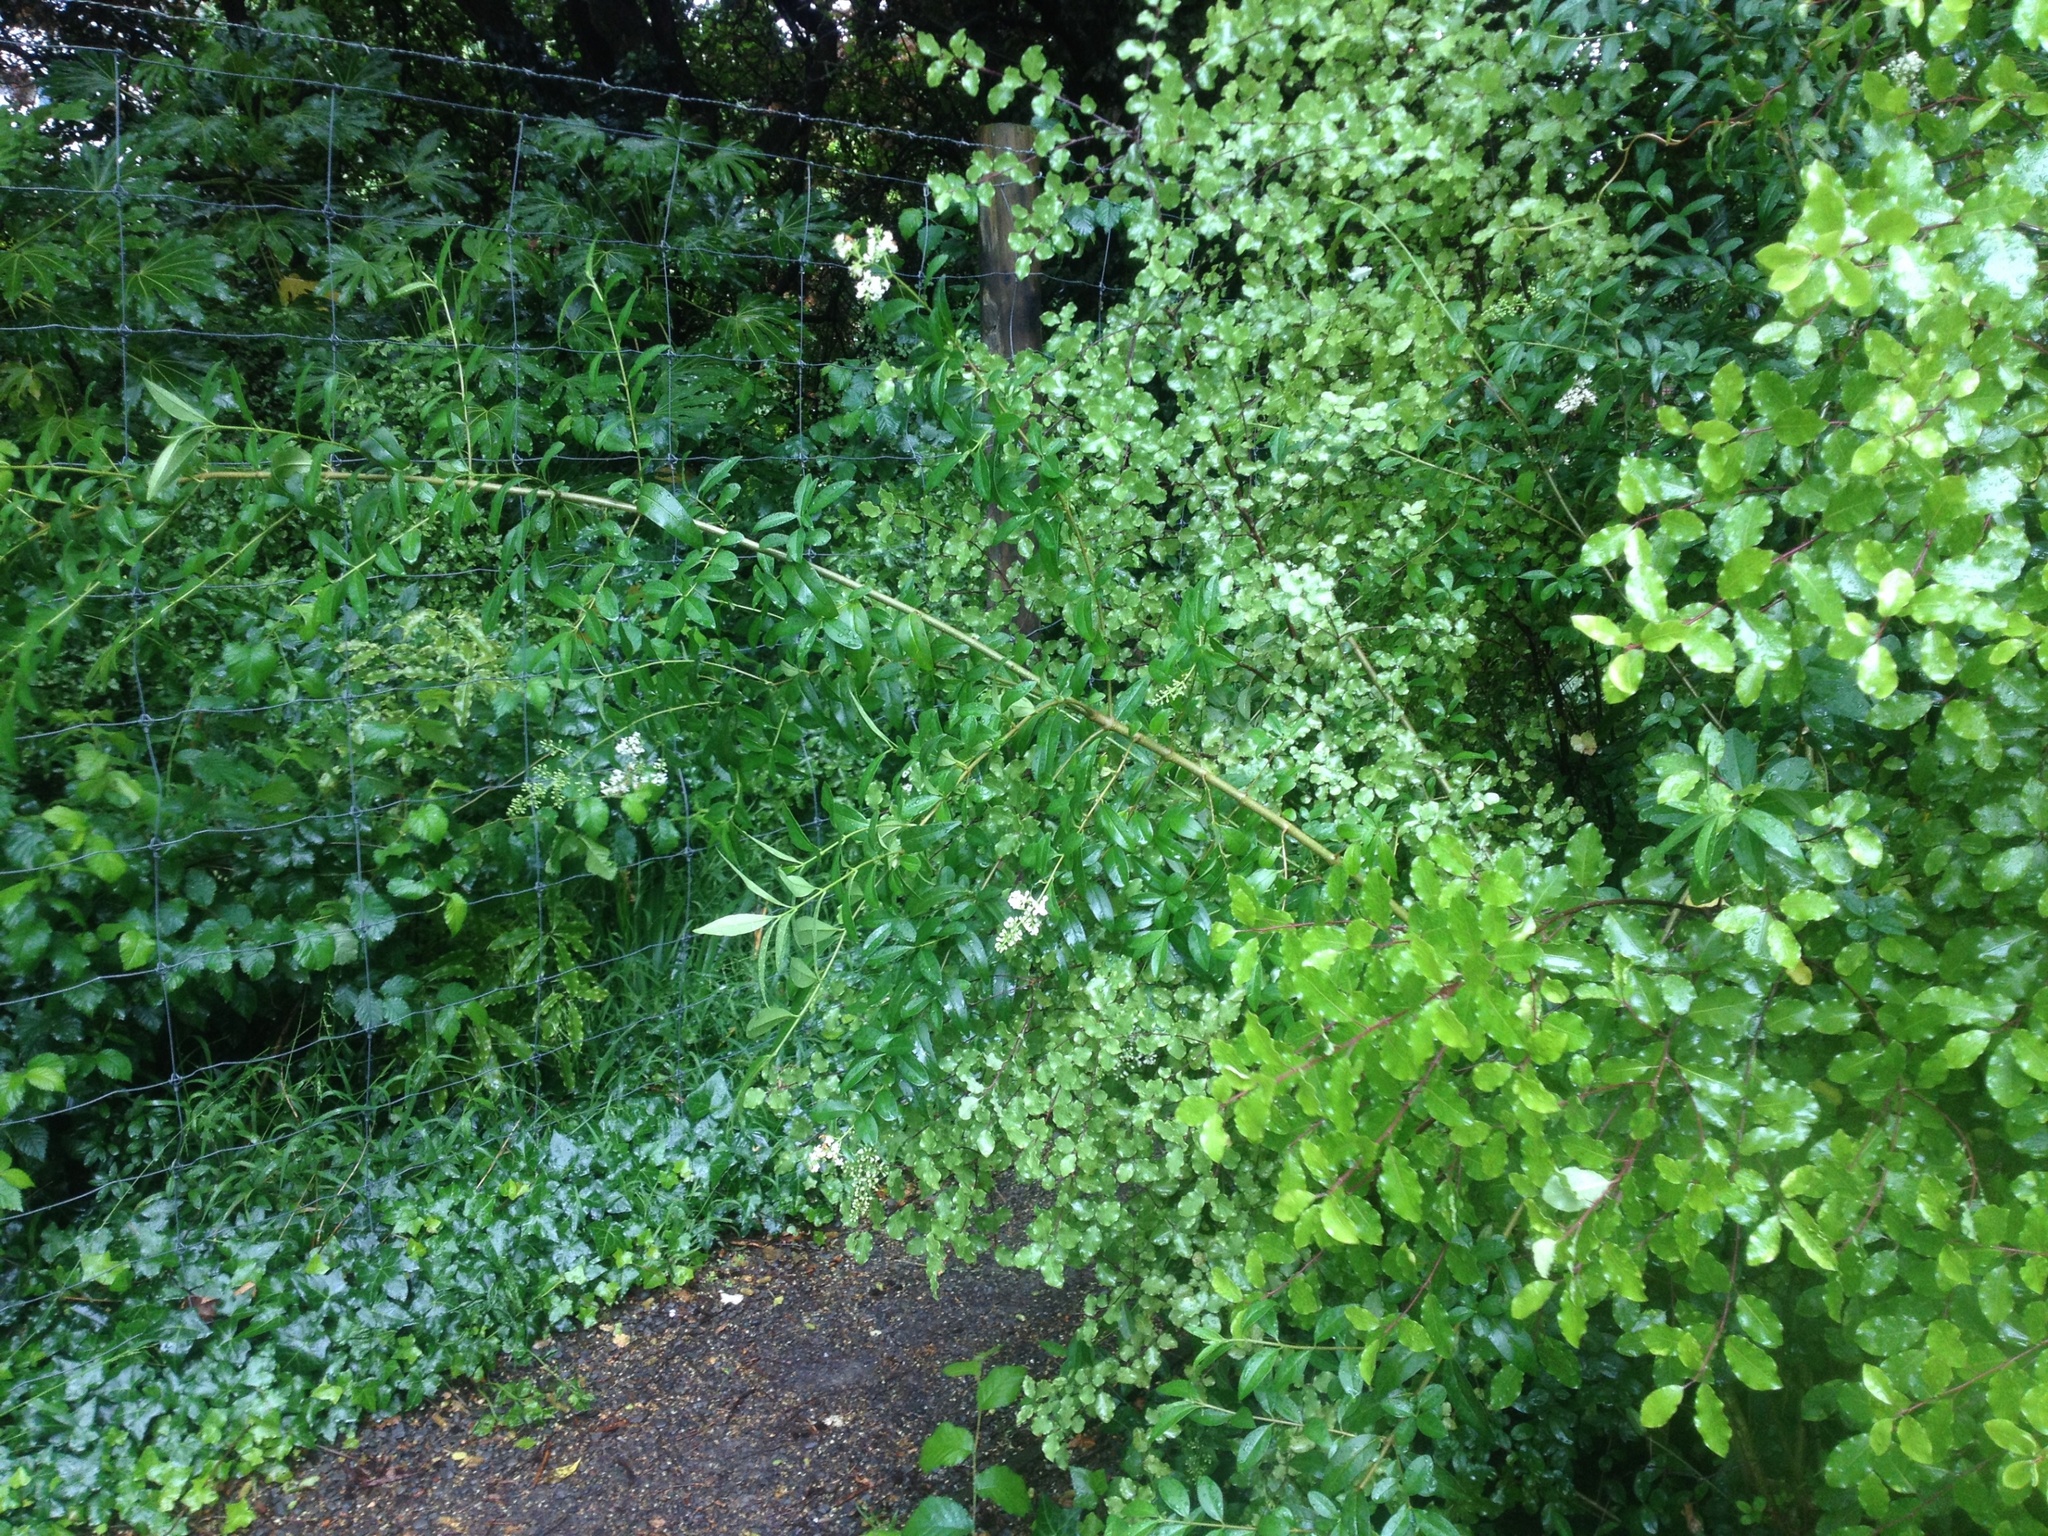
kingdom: Plantae
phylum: Tracheophyta
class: Magnoliopsida
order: Lamiales
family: Oleaceae
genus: Ligustrum
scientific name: Ligustrum vulgare
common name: Wild privet
